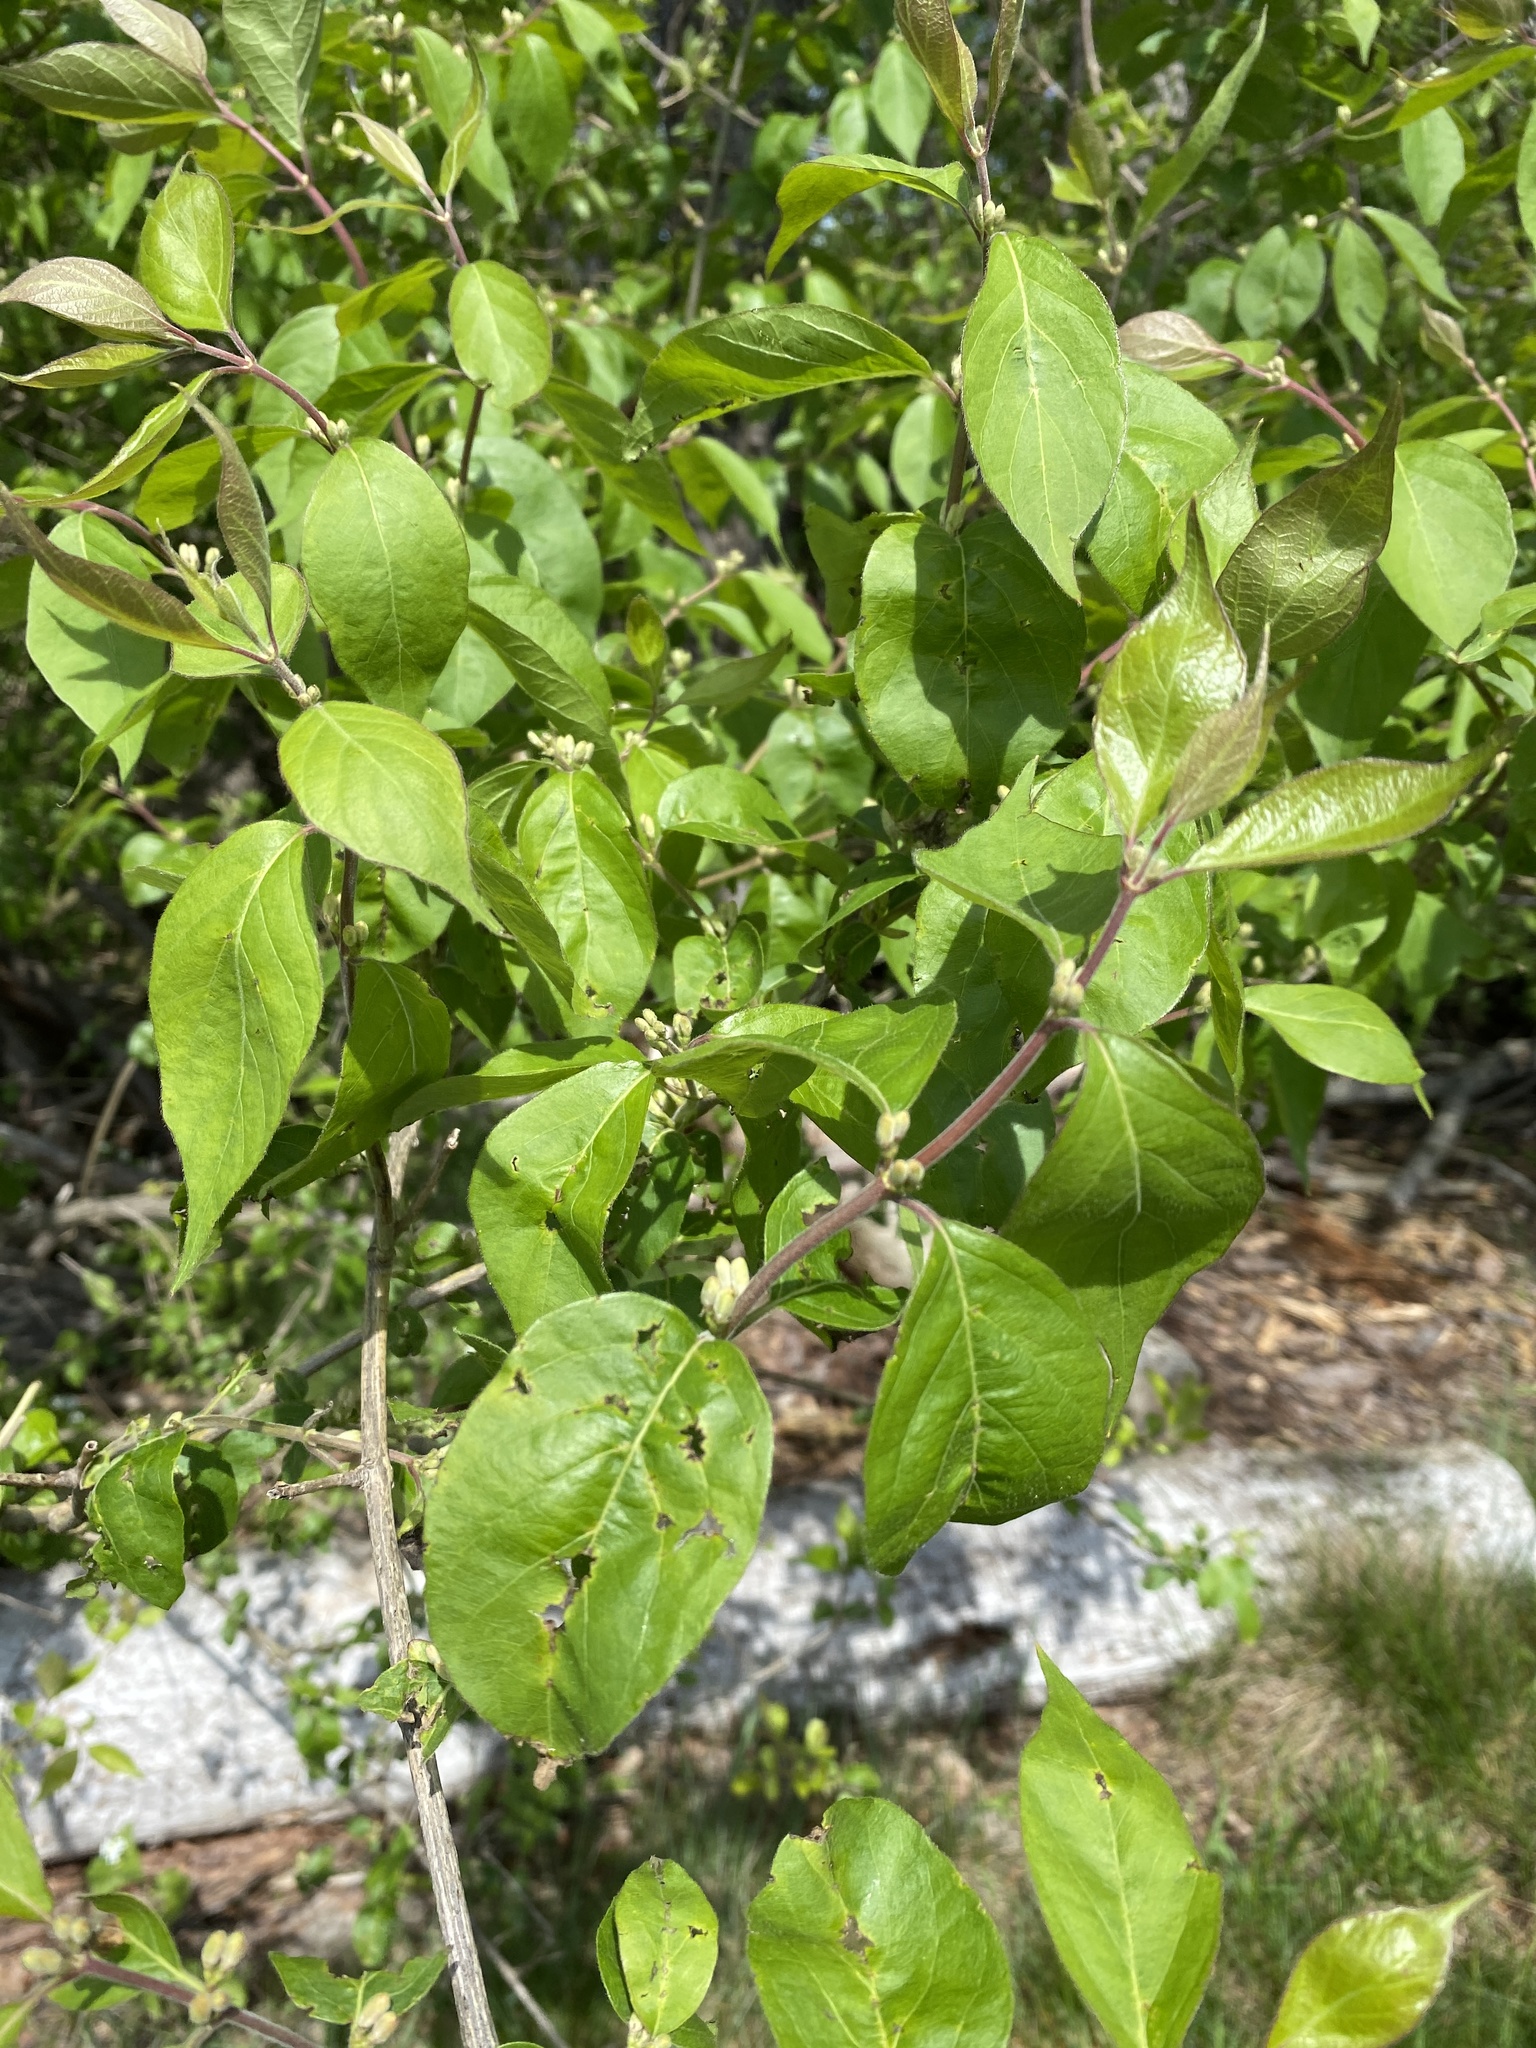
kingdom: Plantae
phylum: Tracheophyta
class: Magnoliopsida
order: Dipsacales
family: Caprifoliaceae
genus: Lonicera
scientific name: Lonicera maackii
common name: Amur honeysuckle
